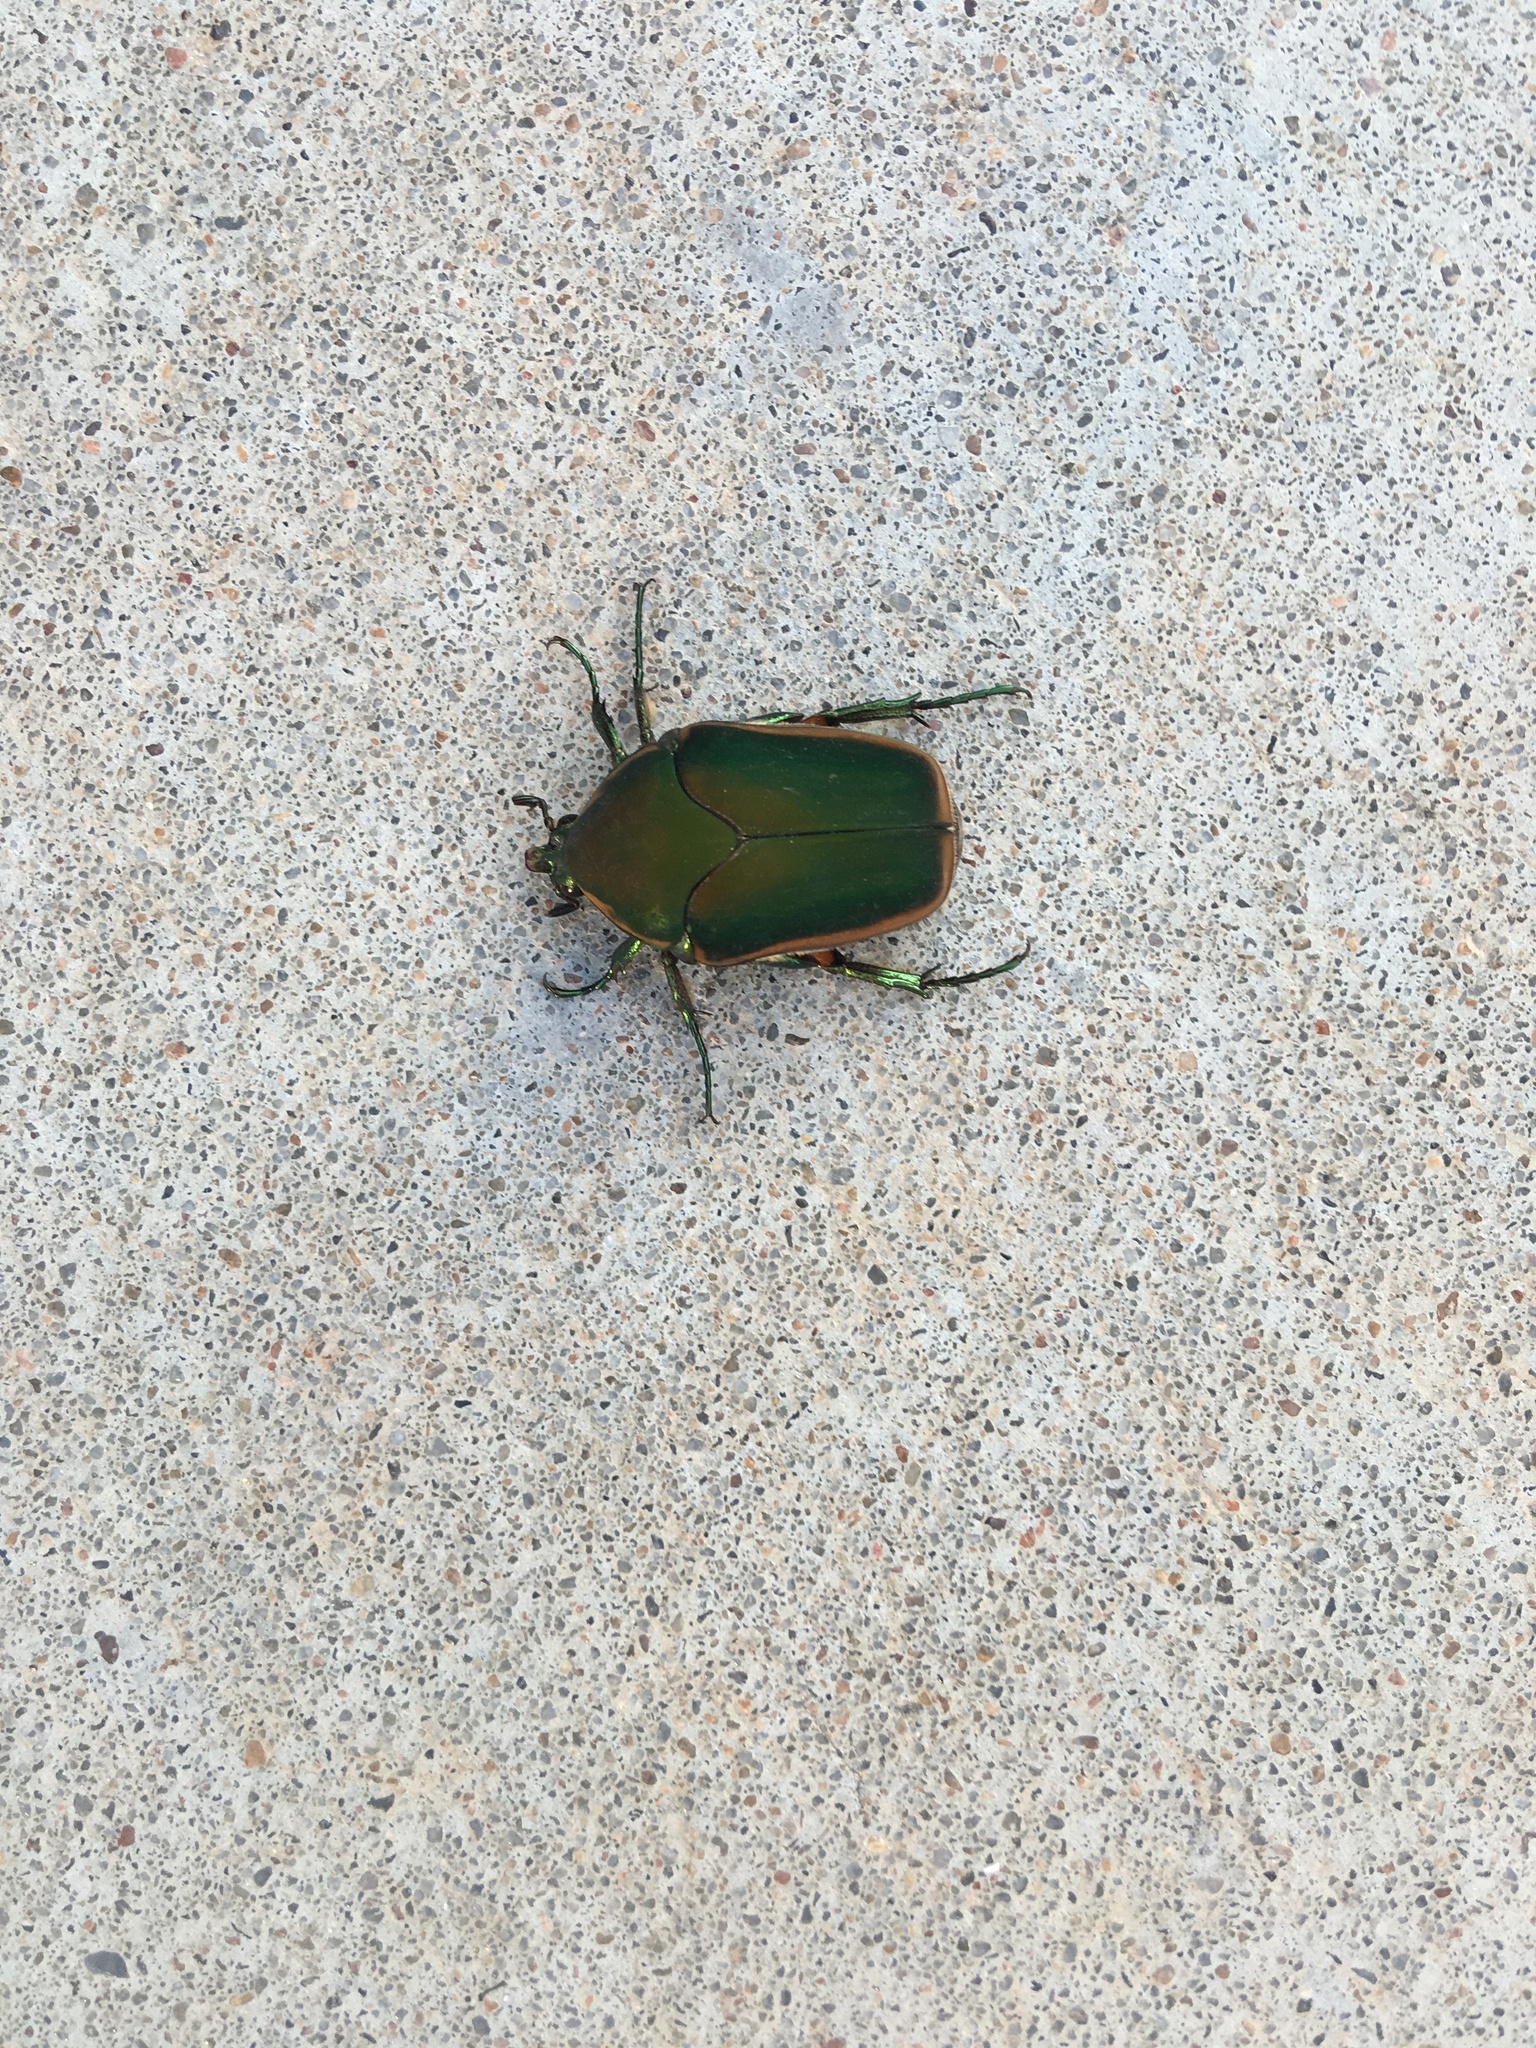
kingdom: Animalia
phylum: Arthropoda
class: Insecta
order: Coleoptera
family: Scarabaeidae
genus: Cotinis
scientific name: Cotinis nitida
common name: Common green june beetle
